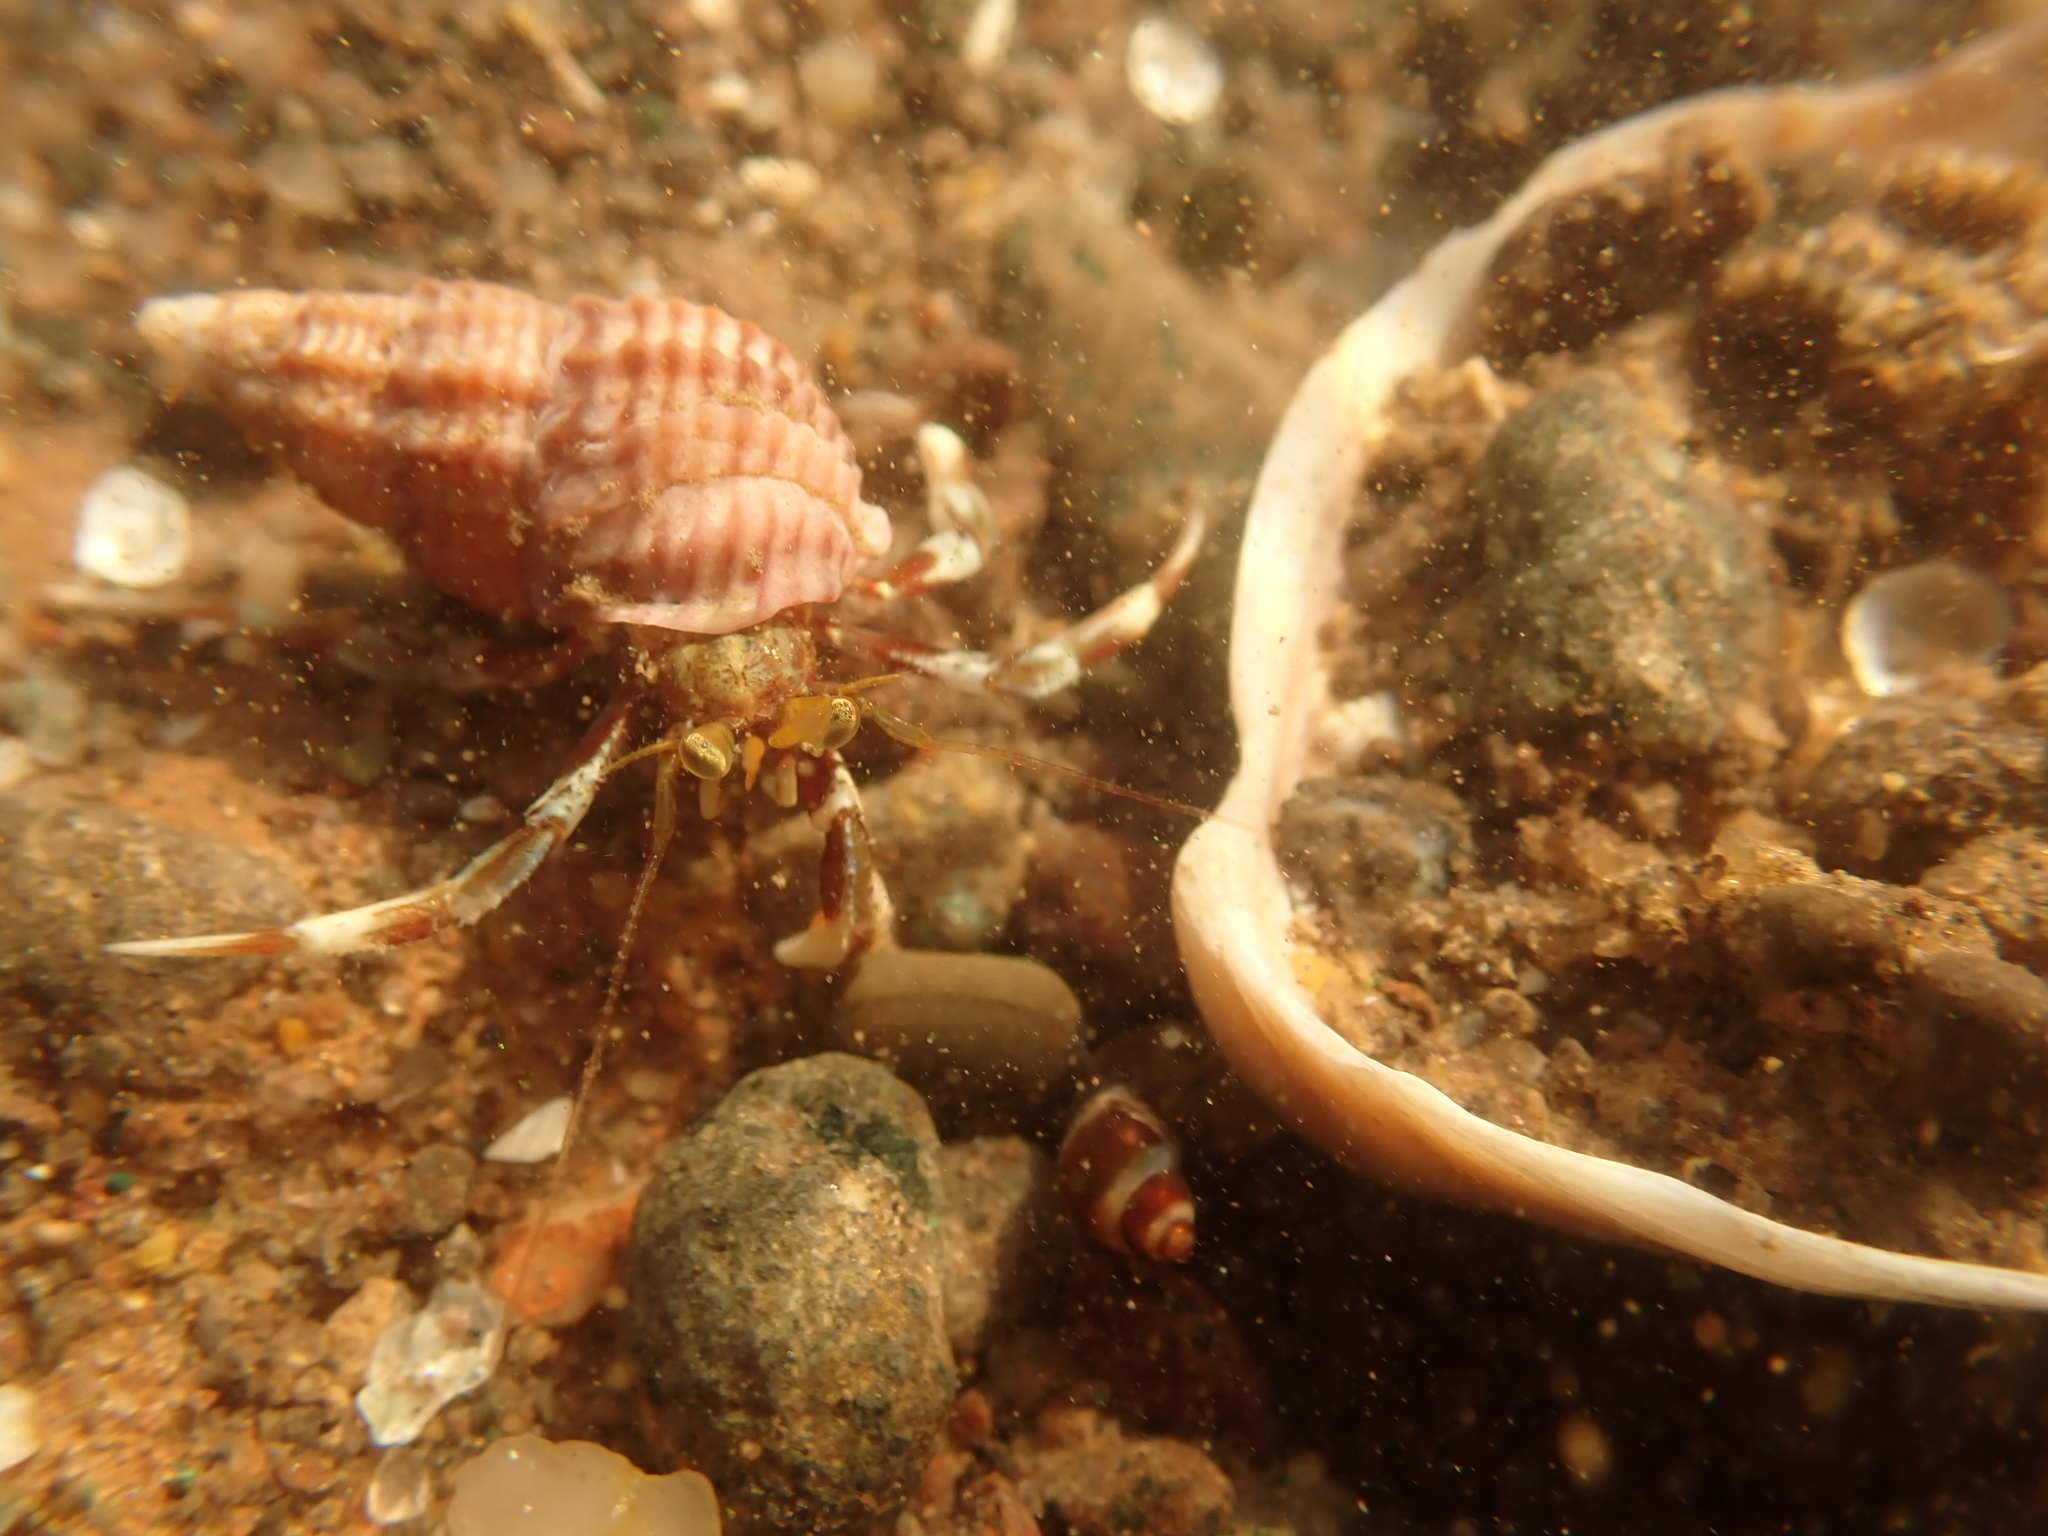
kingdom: Animalia
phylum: Mollusca
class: Gastropoda
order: Littorinimorpha
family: Littorinidae
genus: Lacuna
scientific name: Lacuna vincta
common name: Banded chink shell
